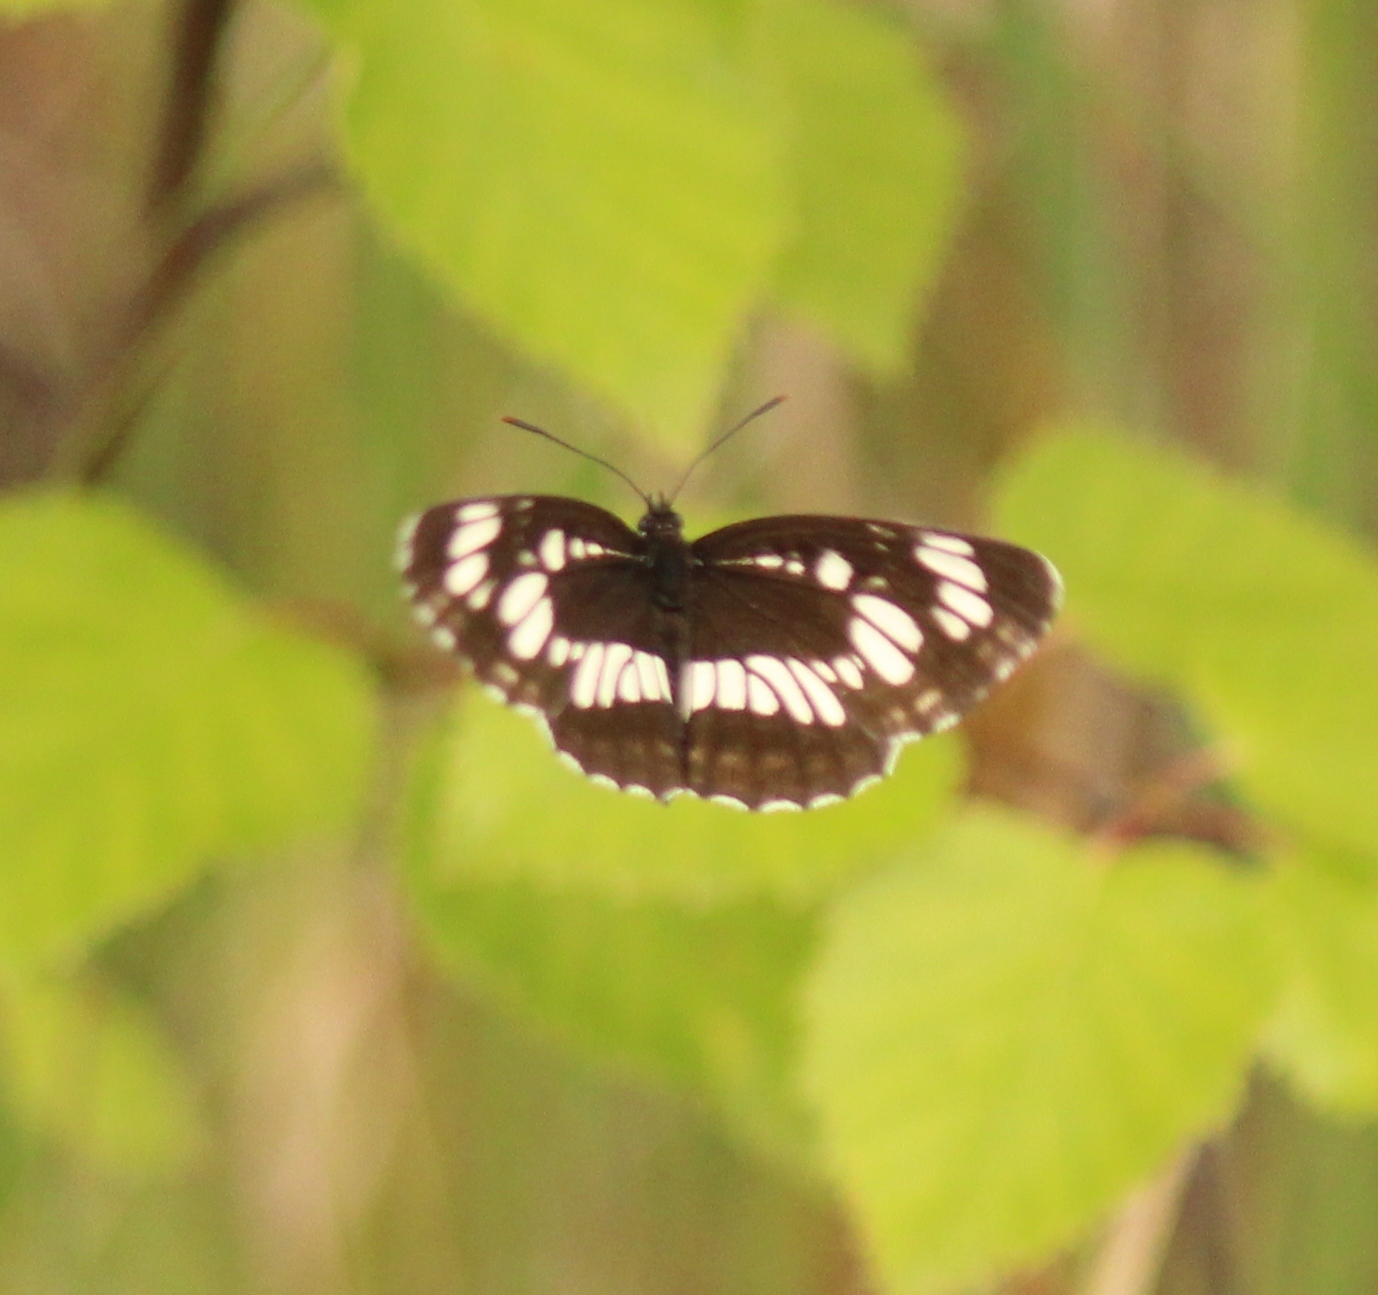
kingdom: Animalia
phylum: Arthropoda
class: Insecta
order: Lepidoptera
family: Nymphalidae
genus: Neptis
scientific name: Neptis rivularis
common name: Hungarian glider
